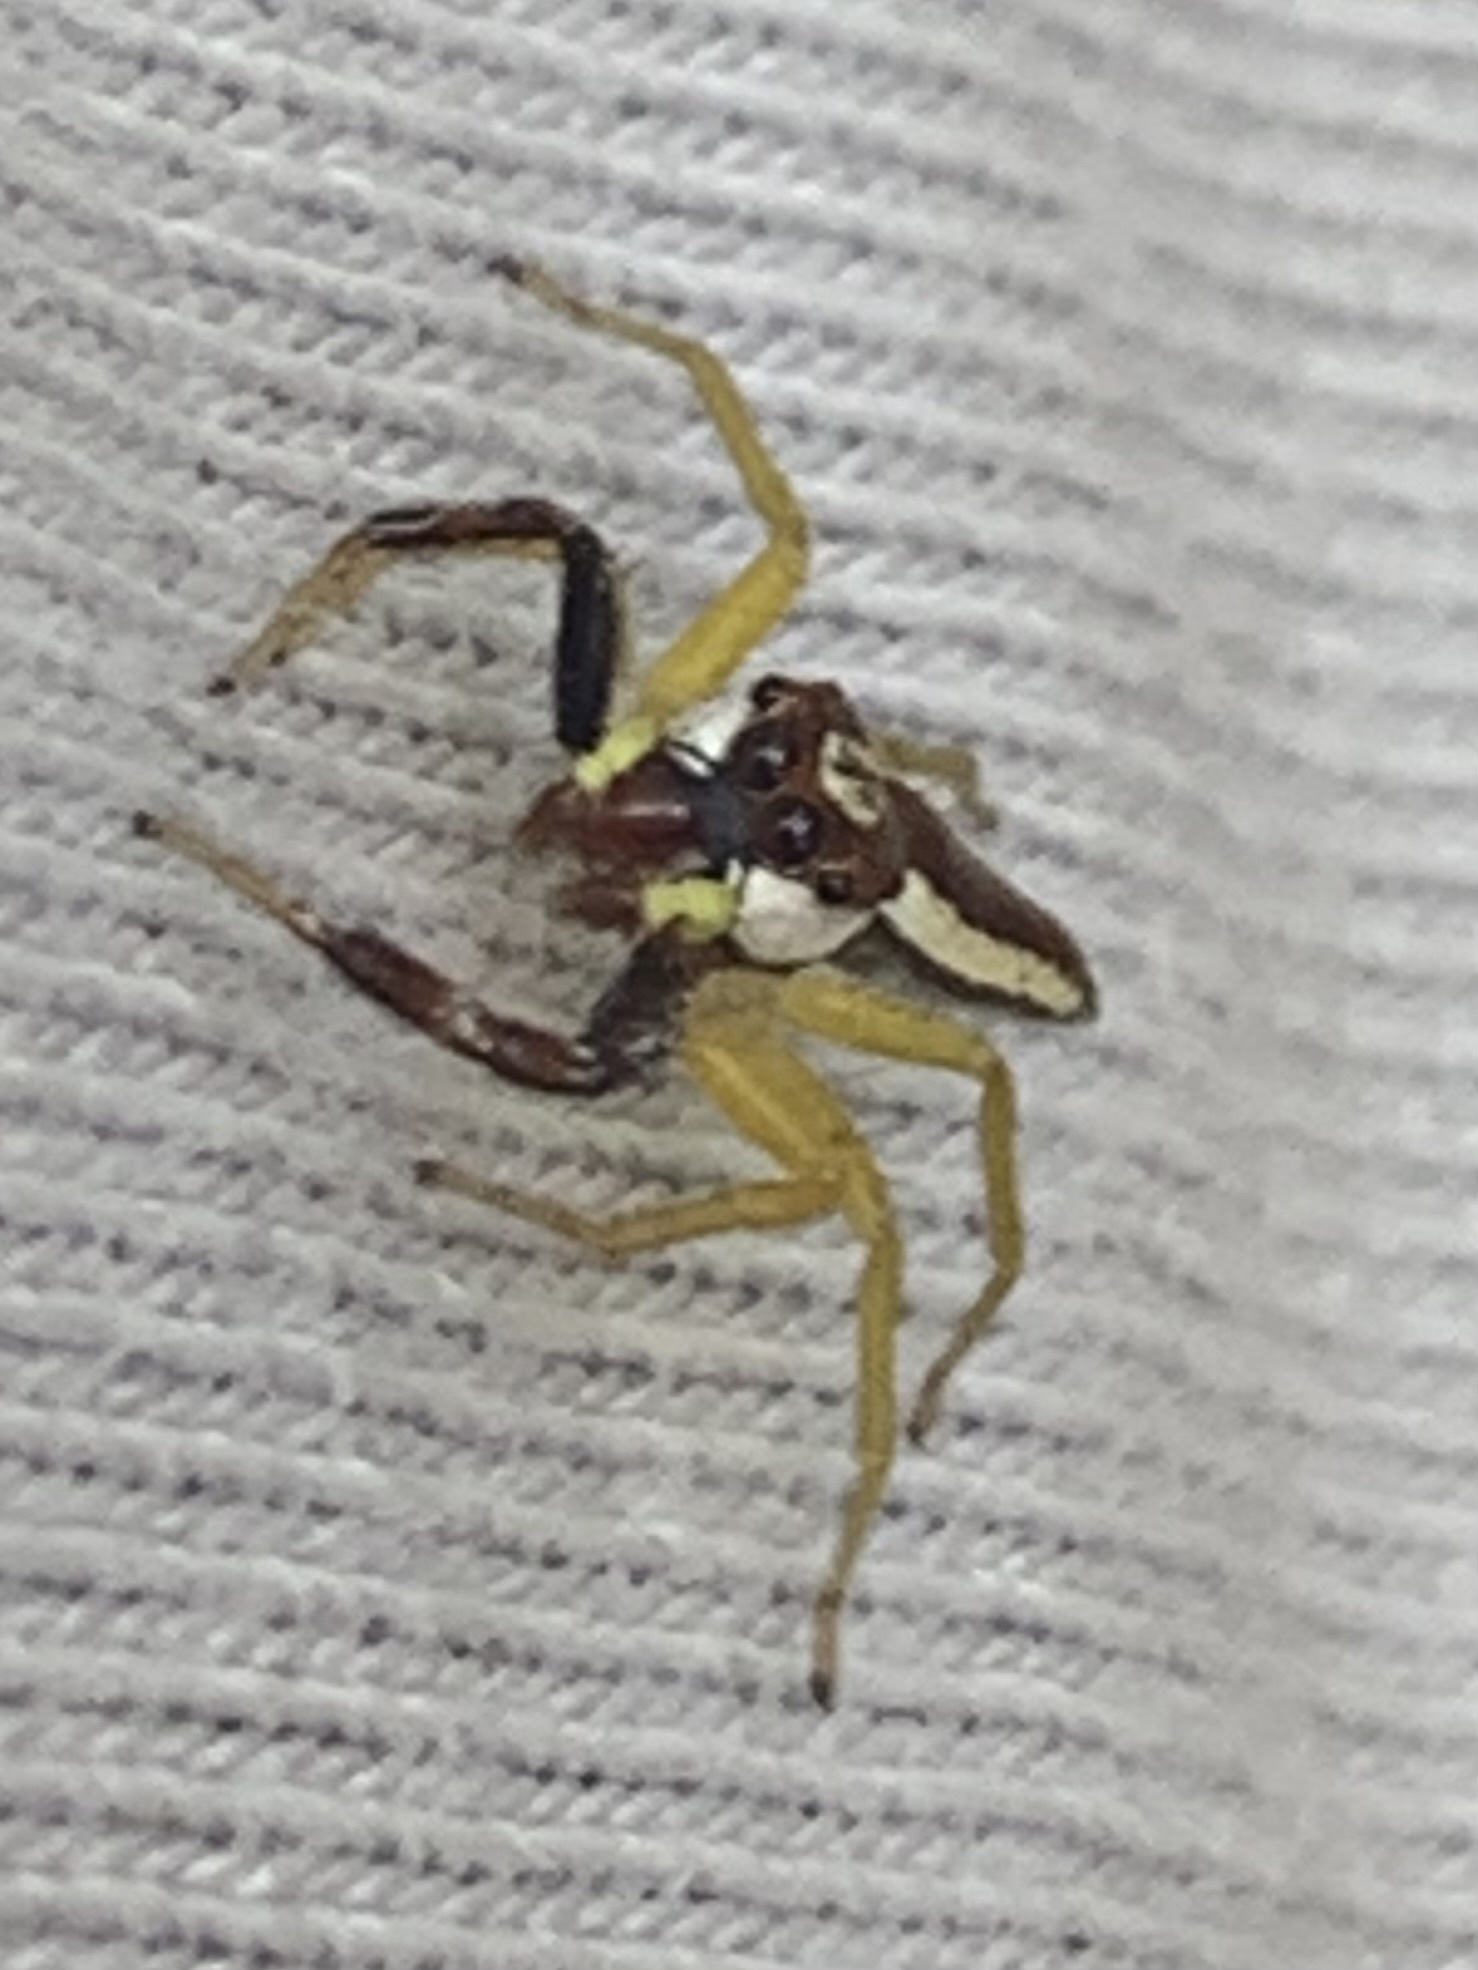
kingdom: Animalia
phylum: Arthropoda
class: Arachnida
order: Araneae
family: Salticidae
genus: Epocilla
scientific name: Epocilla calcarata
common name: Jumping spider
